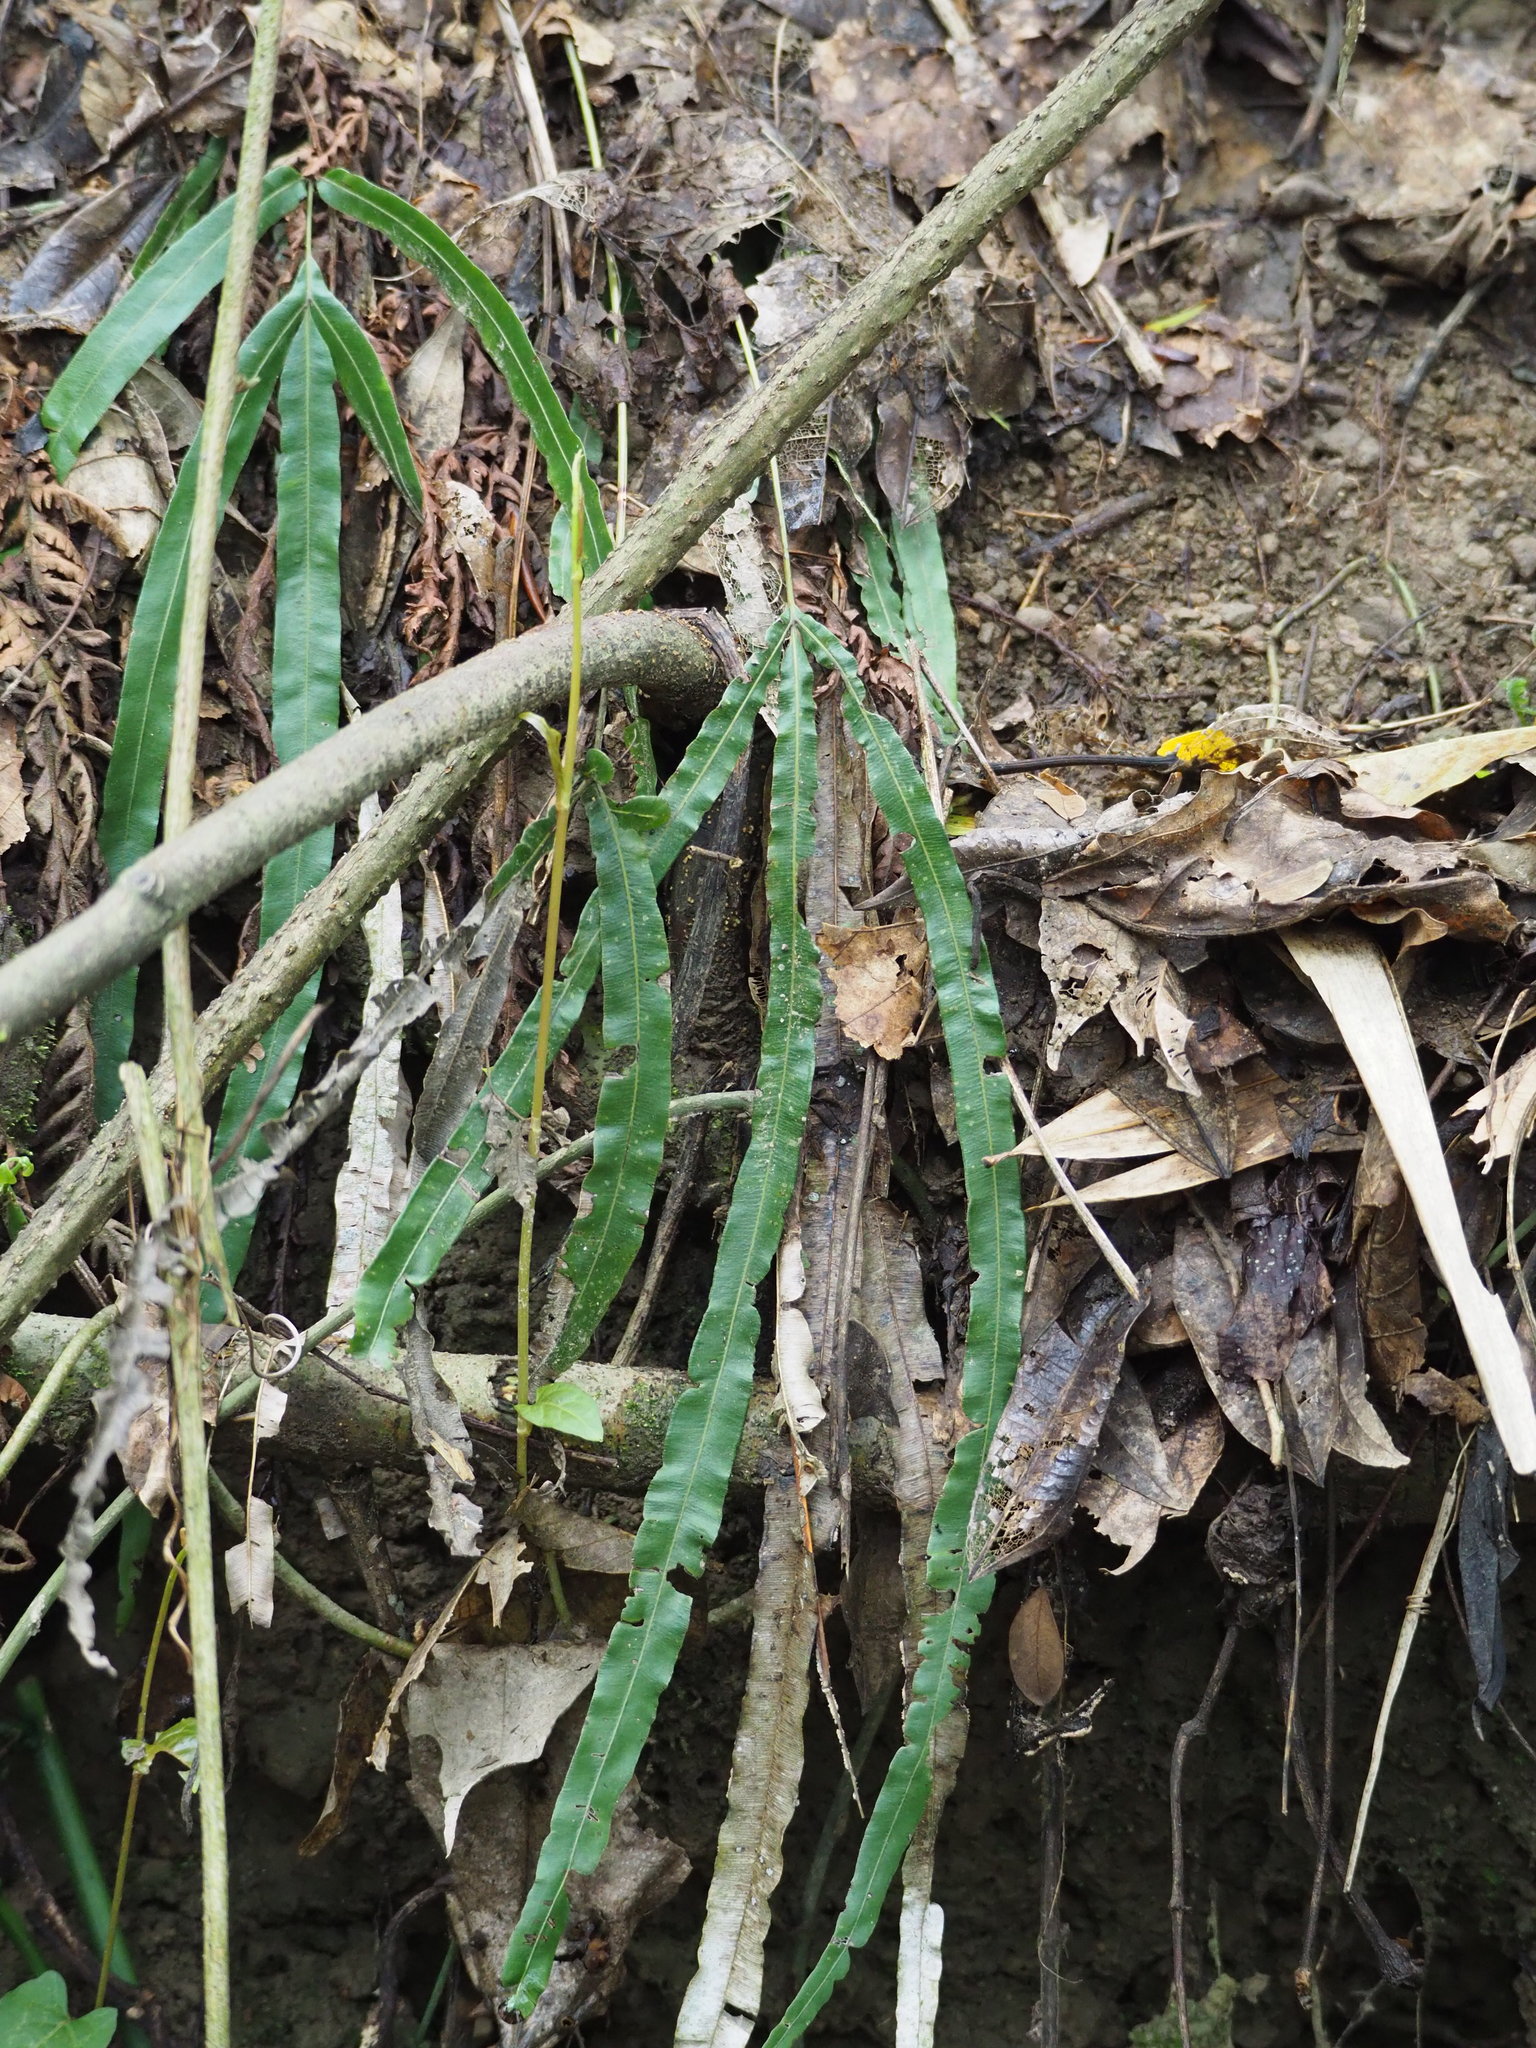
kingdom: Plantae
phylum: Tracheophyta
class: Polypodiopsida
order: Polypodiales
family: Pteridaceae
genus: Pteris
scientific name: Pteris longipinna
